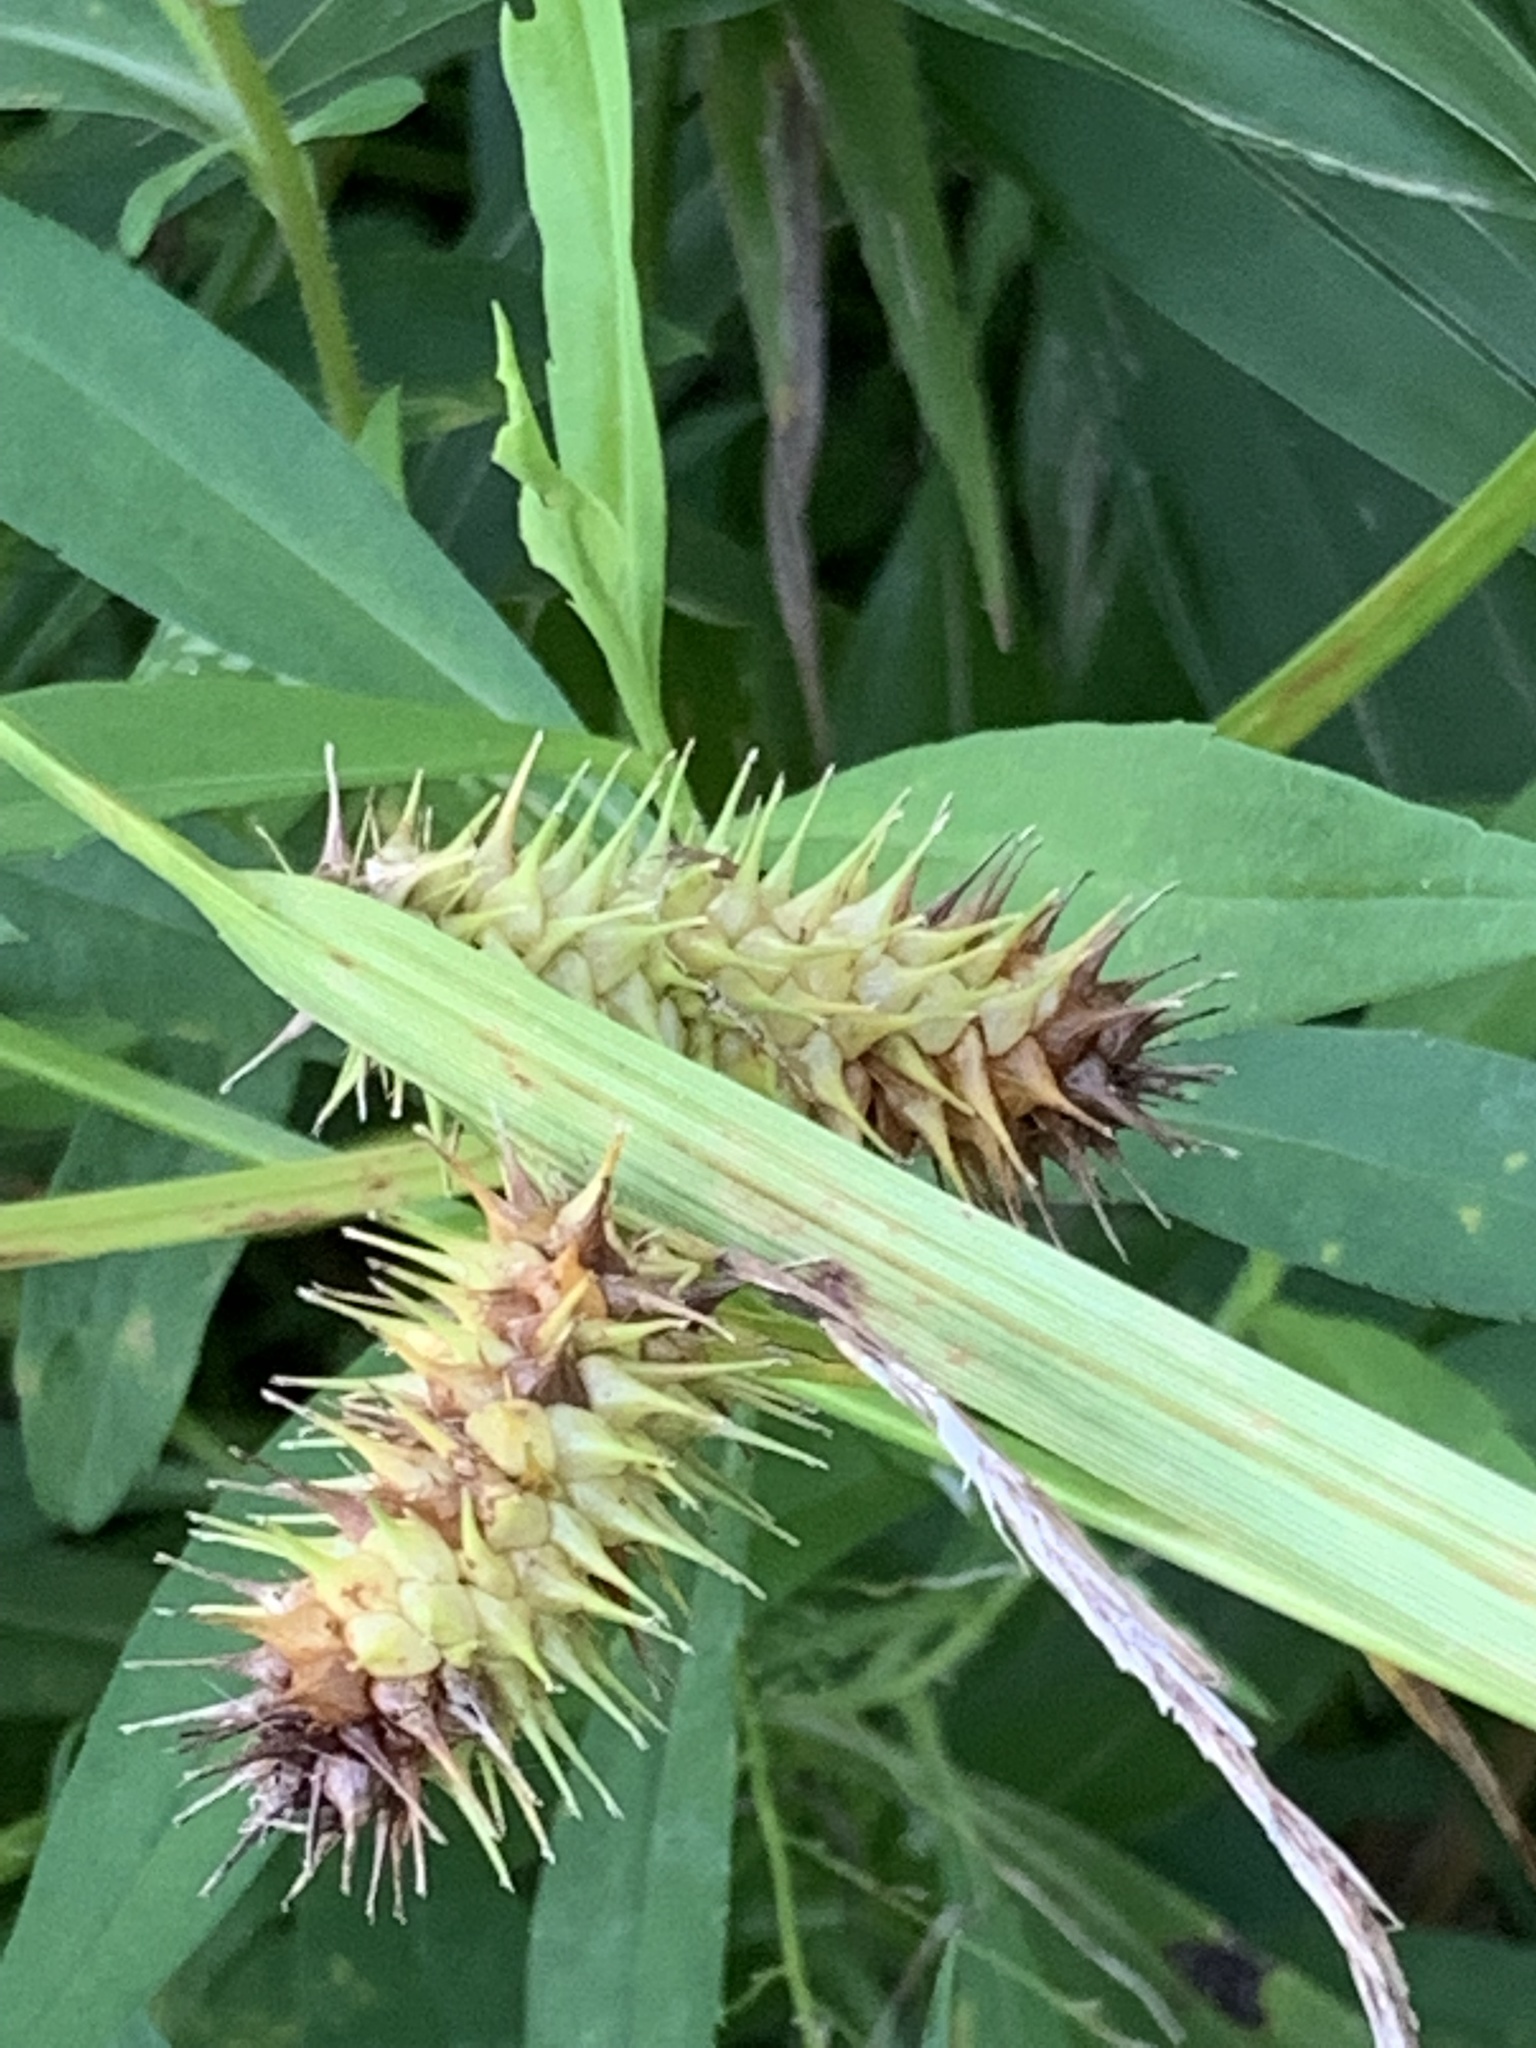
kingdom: Plantae
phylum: Tracheophyta
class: Liliopsida
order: Poales
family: Cyperaceae
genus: Carex
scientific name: Carex lurida
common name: Sallow sedge
